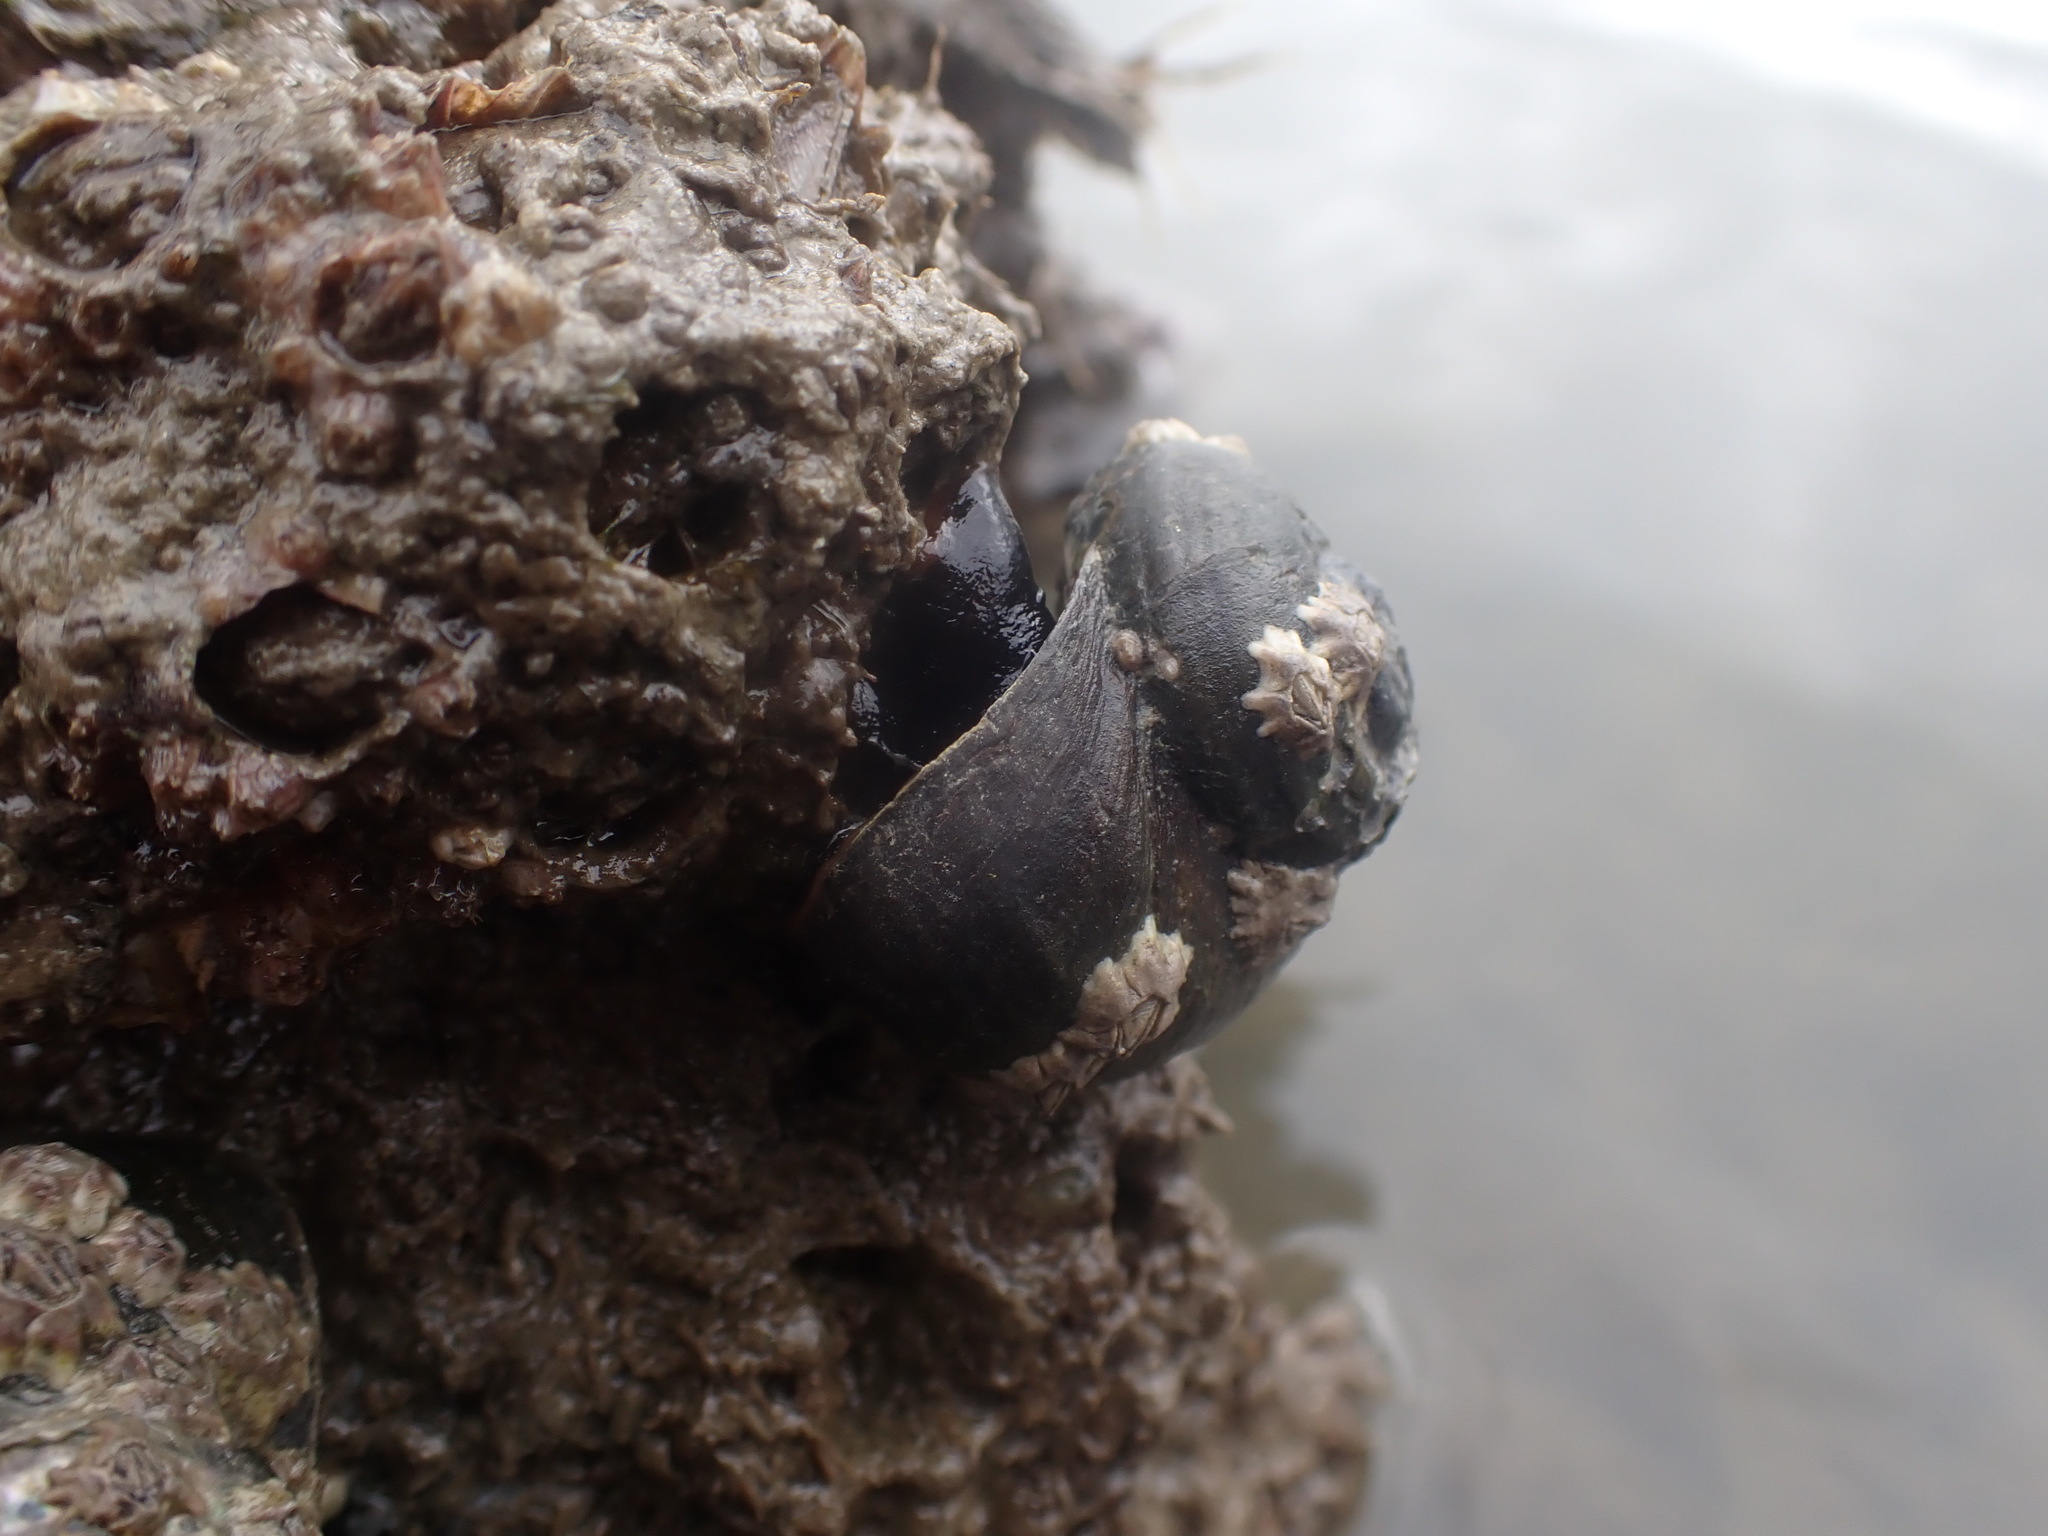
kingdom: Animalia
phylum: Mollusca
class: Gastropoda
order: Trochida
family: Turbinidae
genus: Lunella
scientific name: Lunella smaragda
